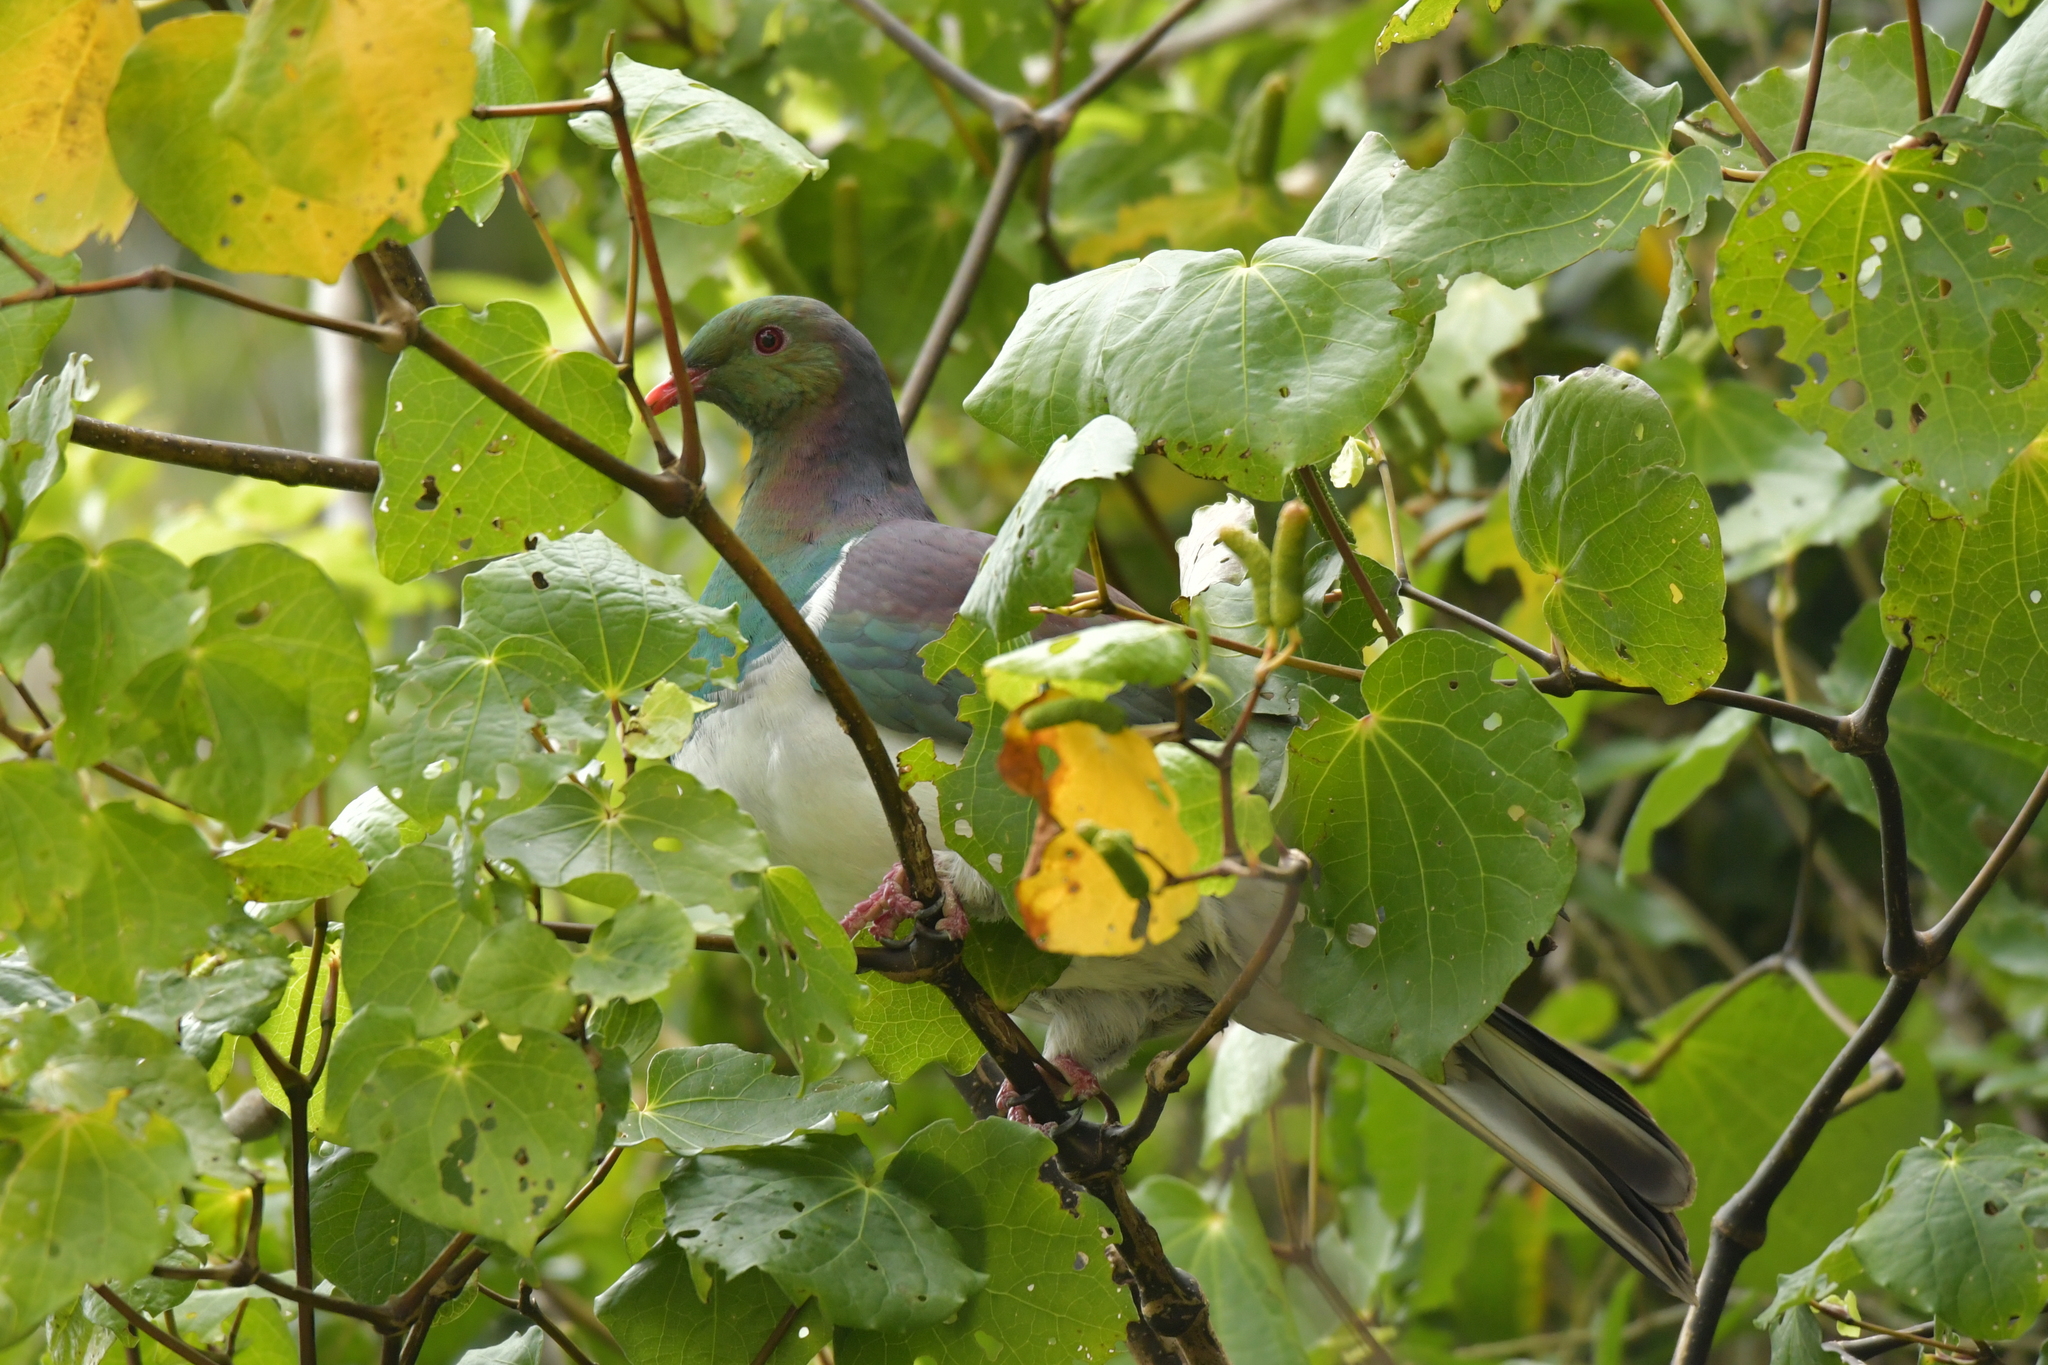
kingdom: Animalia
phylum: Chordata
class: Aves
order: Columbiformes
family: Columbidae
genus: Hemiphaga
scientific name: Hemiphaga novaeseelandiae
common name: New zealand pigeon
